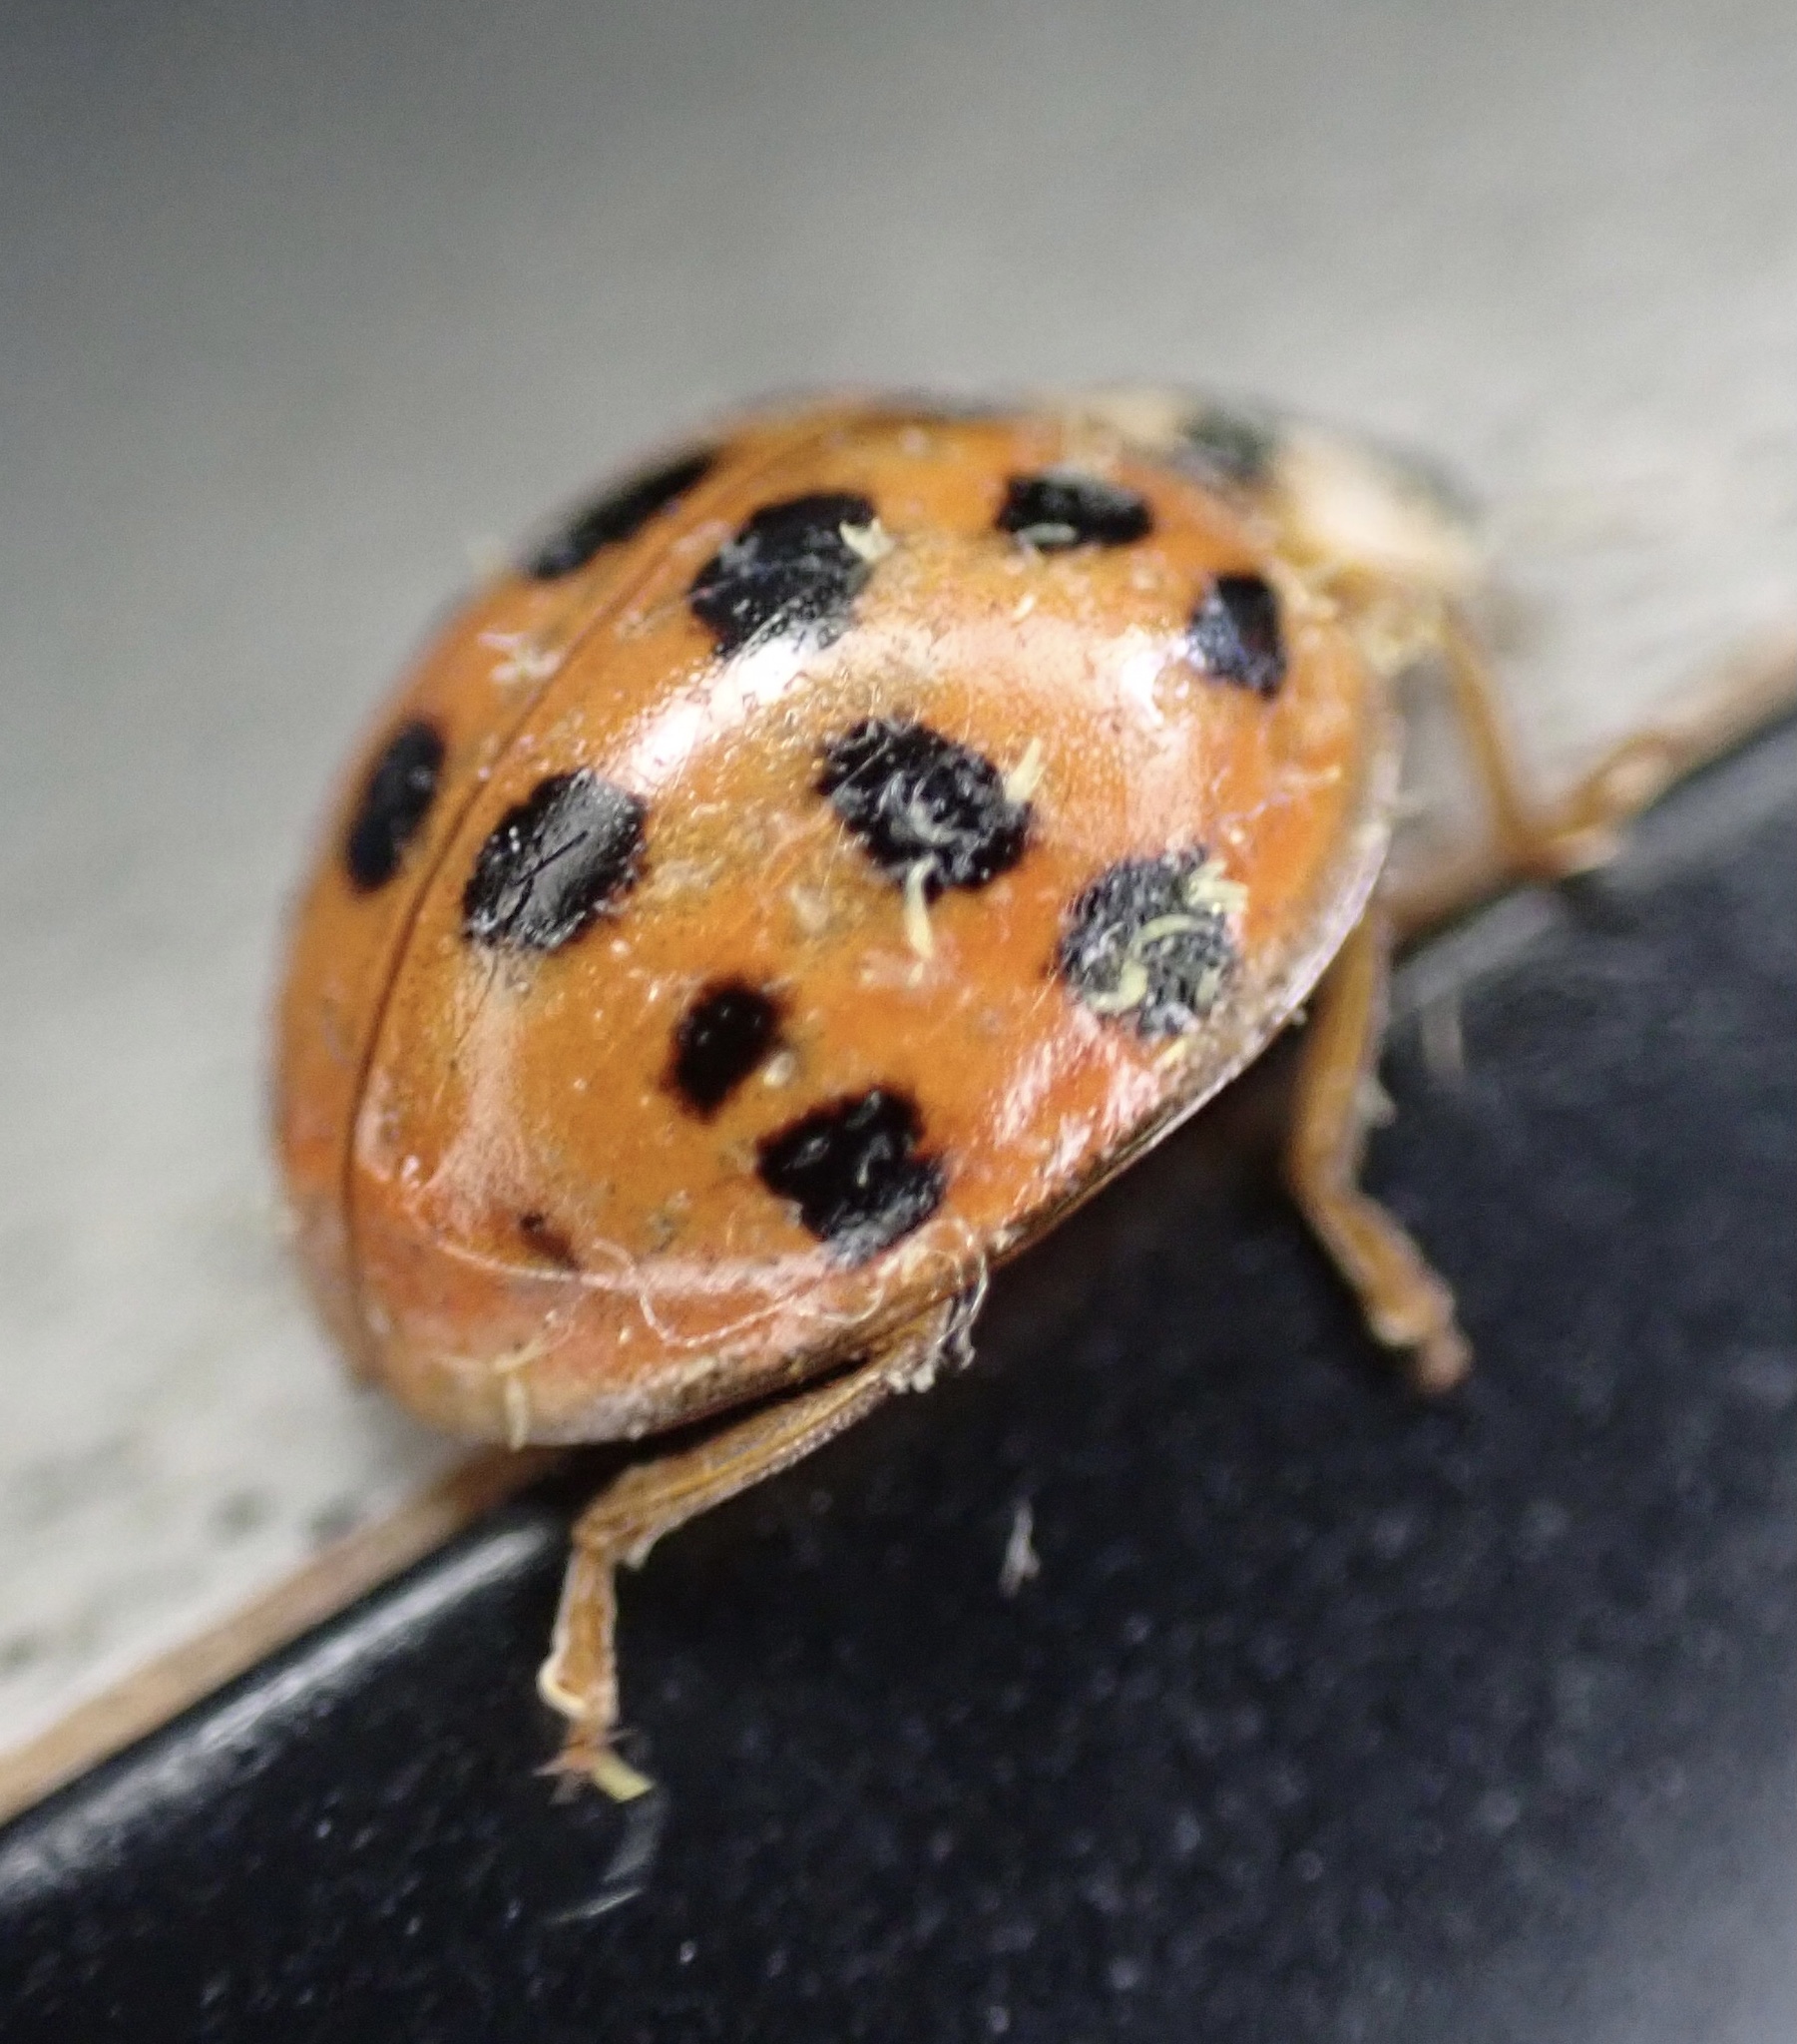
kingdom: Animalia
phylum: Arthropoda
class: Insecta
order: Coleoptera
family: Coccinellidae
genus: Harmonia
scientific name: Harmonia axyridis
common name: Harlequin ladybird
